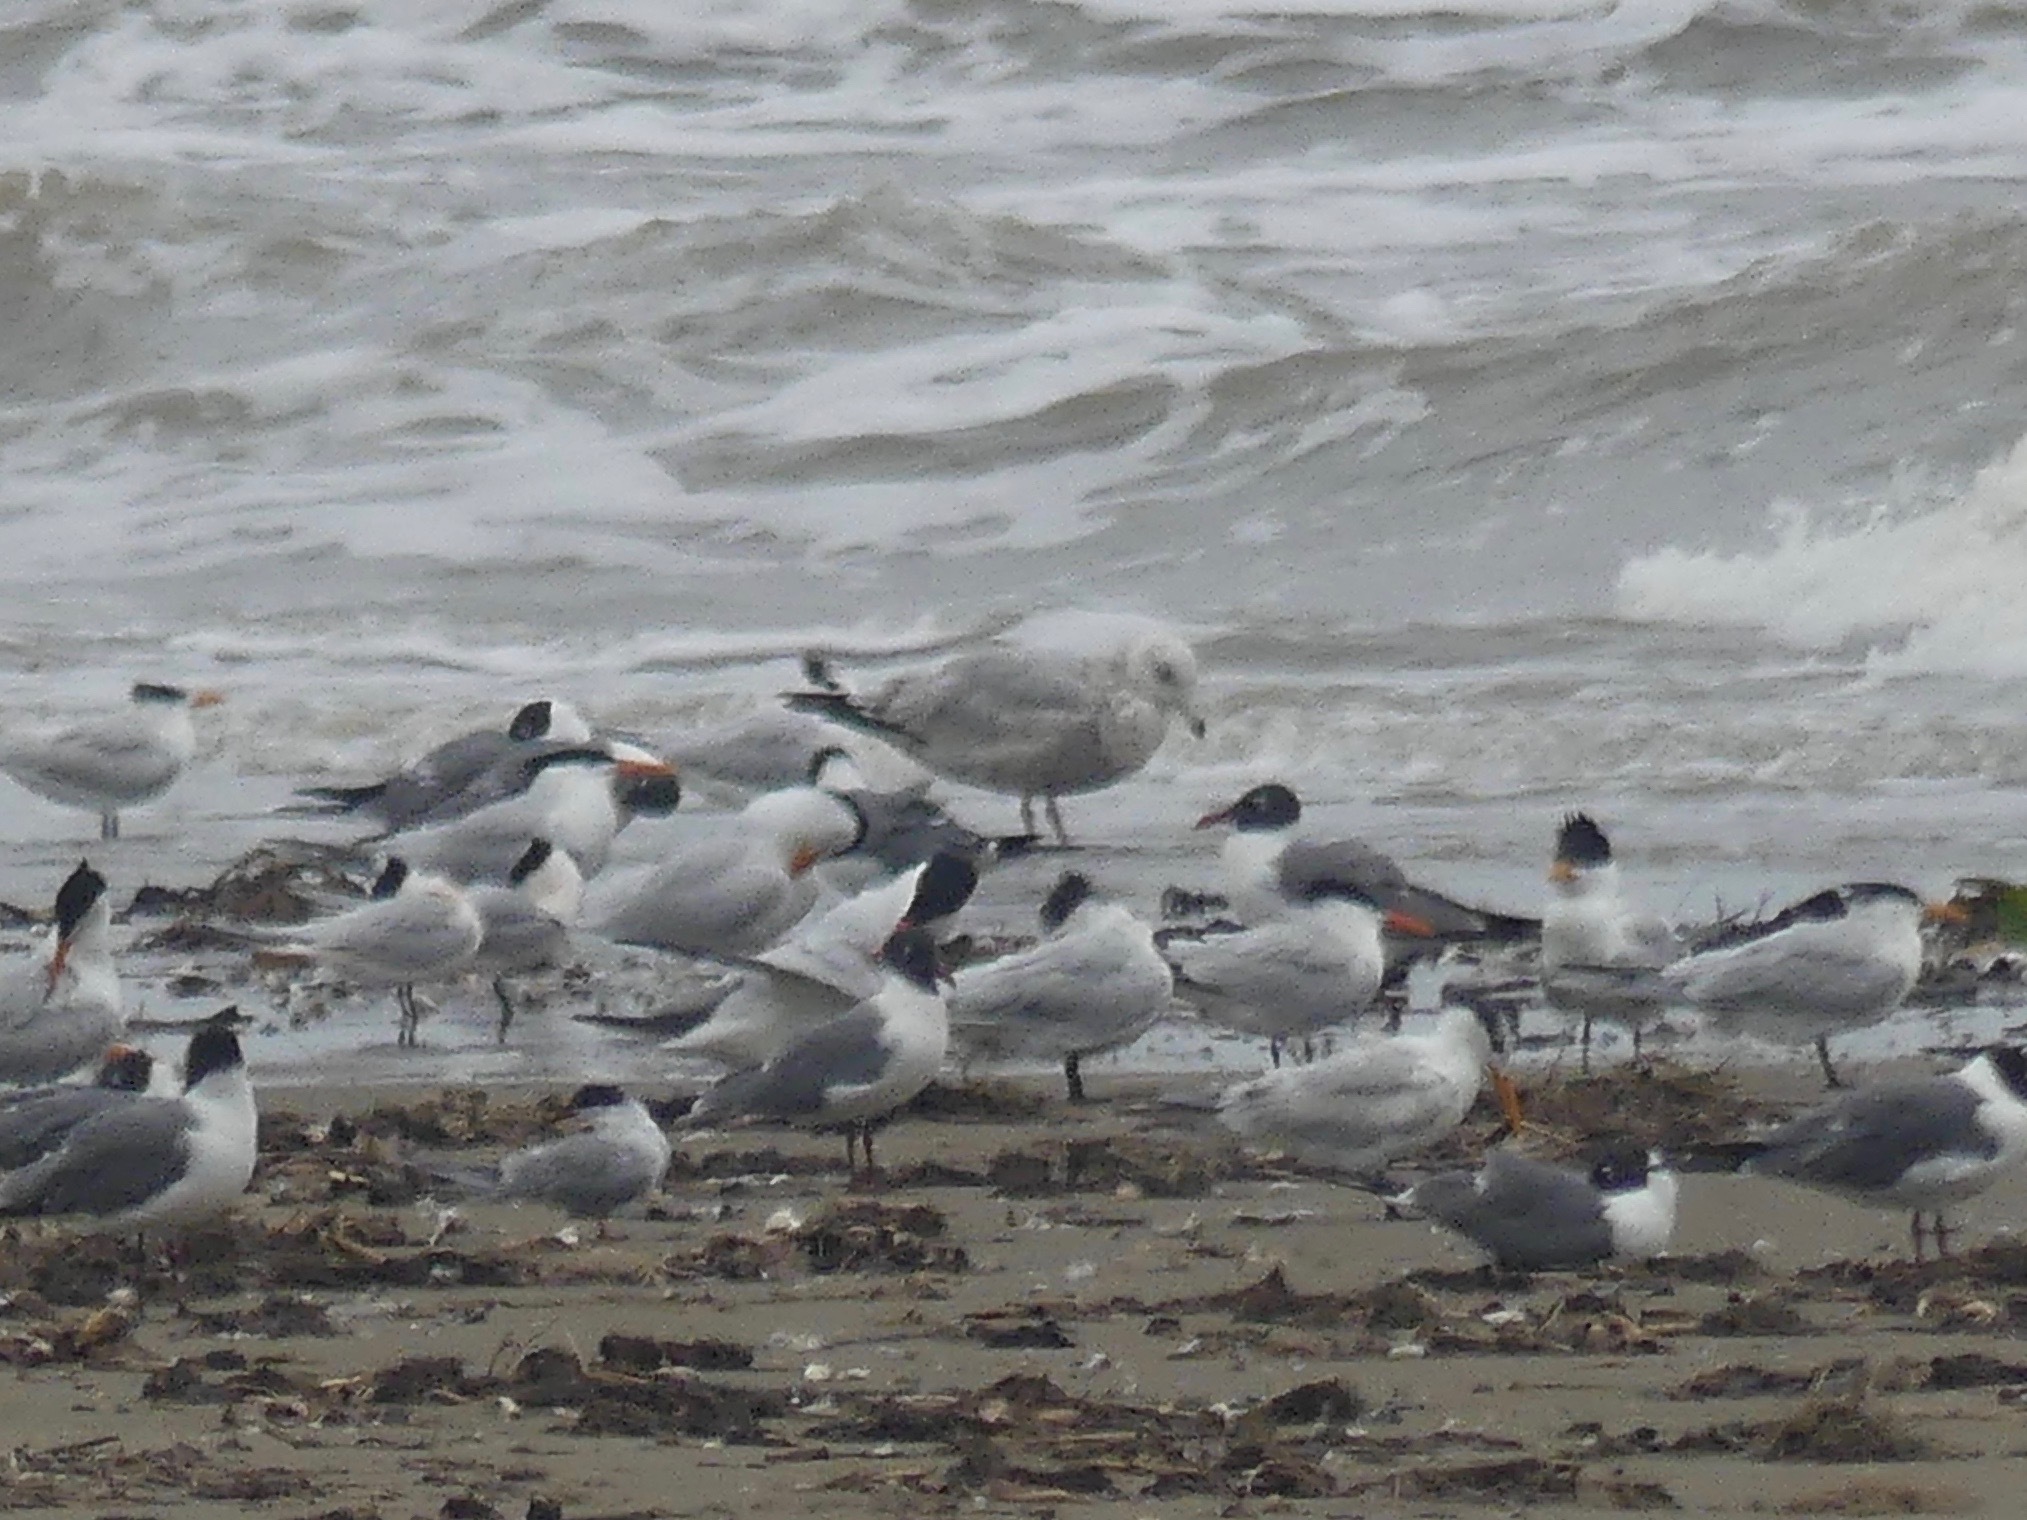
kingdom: Animalia
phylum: Chordata
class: Aves
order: Charadriiformes
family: Laridae
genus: Larus
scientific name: Larus delawarensis
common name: Ring-billed gull
